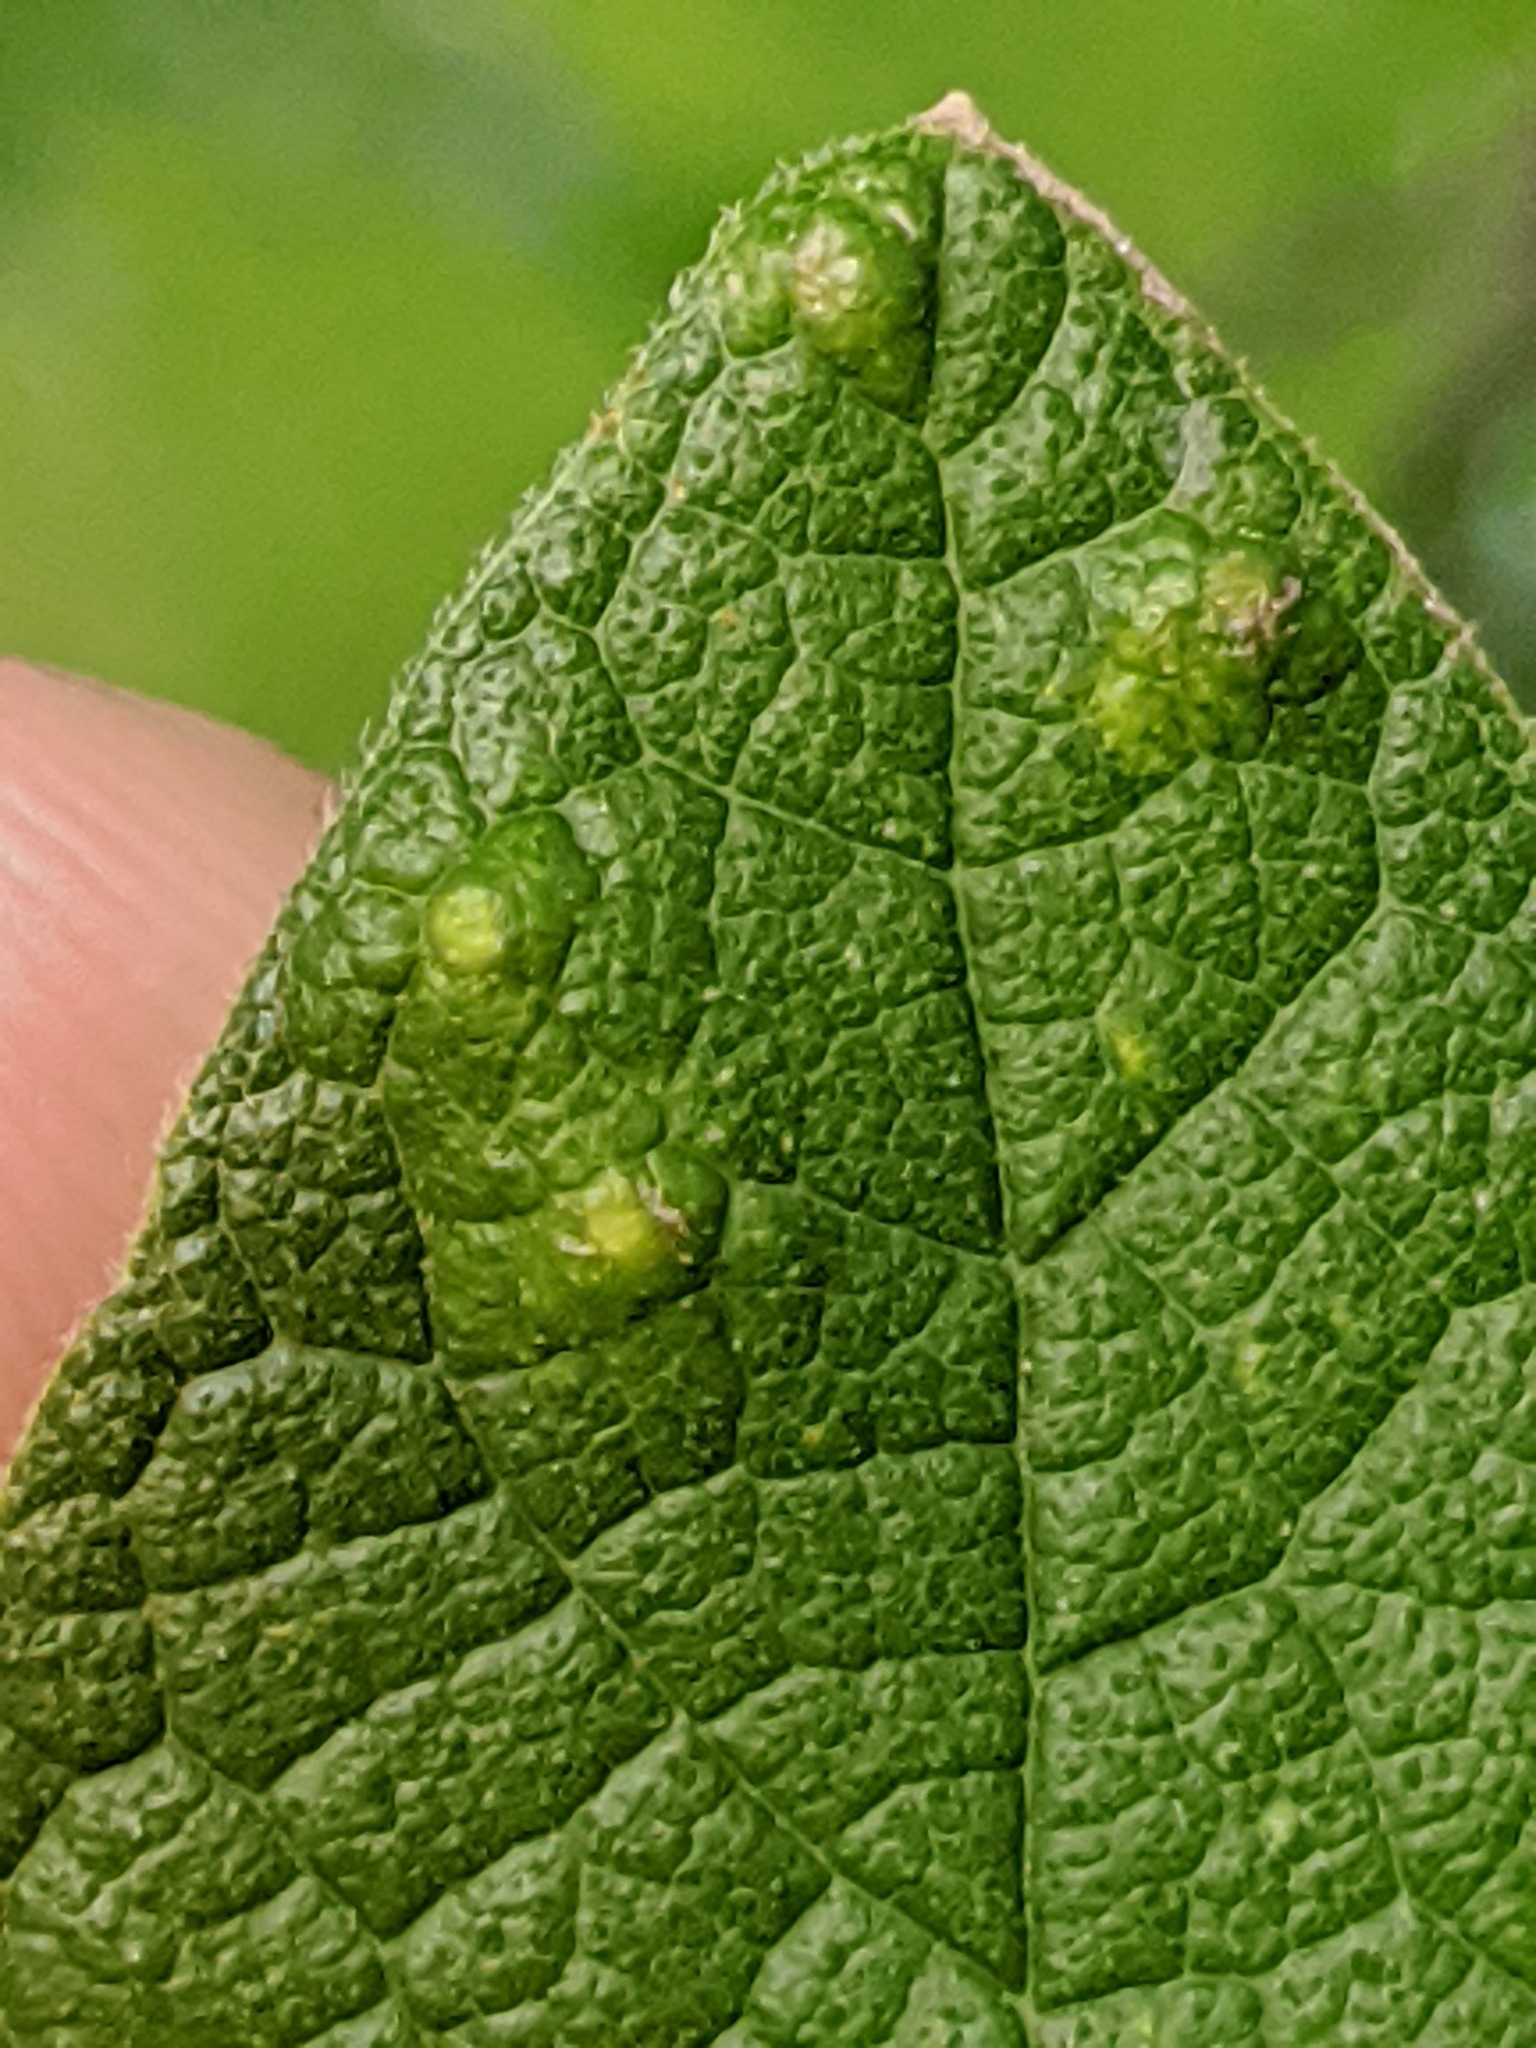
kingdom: Animalia
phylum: Arthropoda
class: Insecta
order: Diptera
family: Cecidomyiidae
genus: Celticecis
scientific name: Celticecis capsularis
